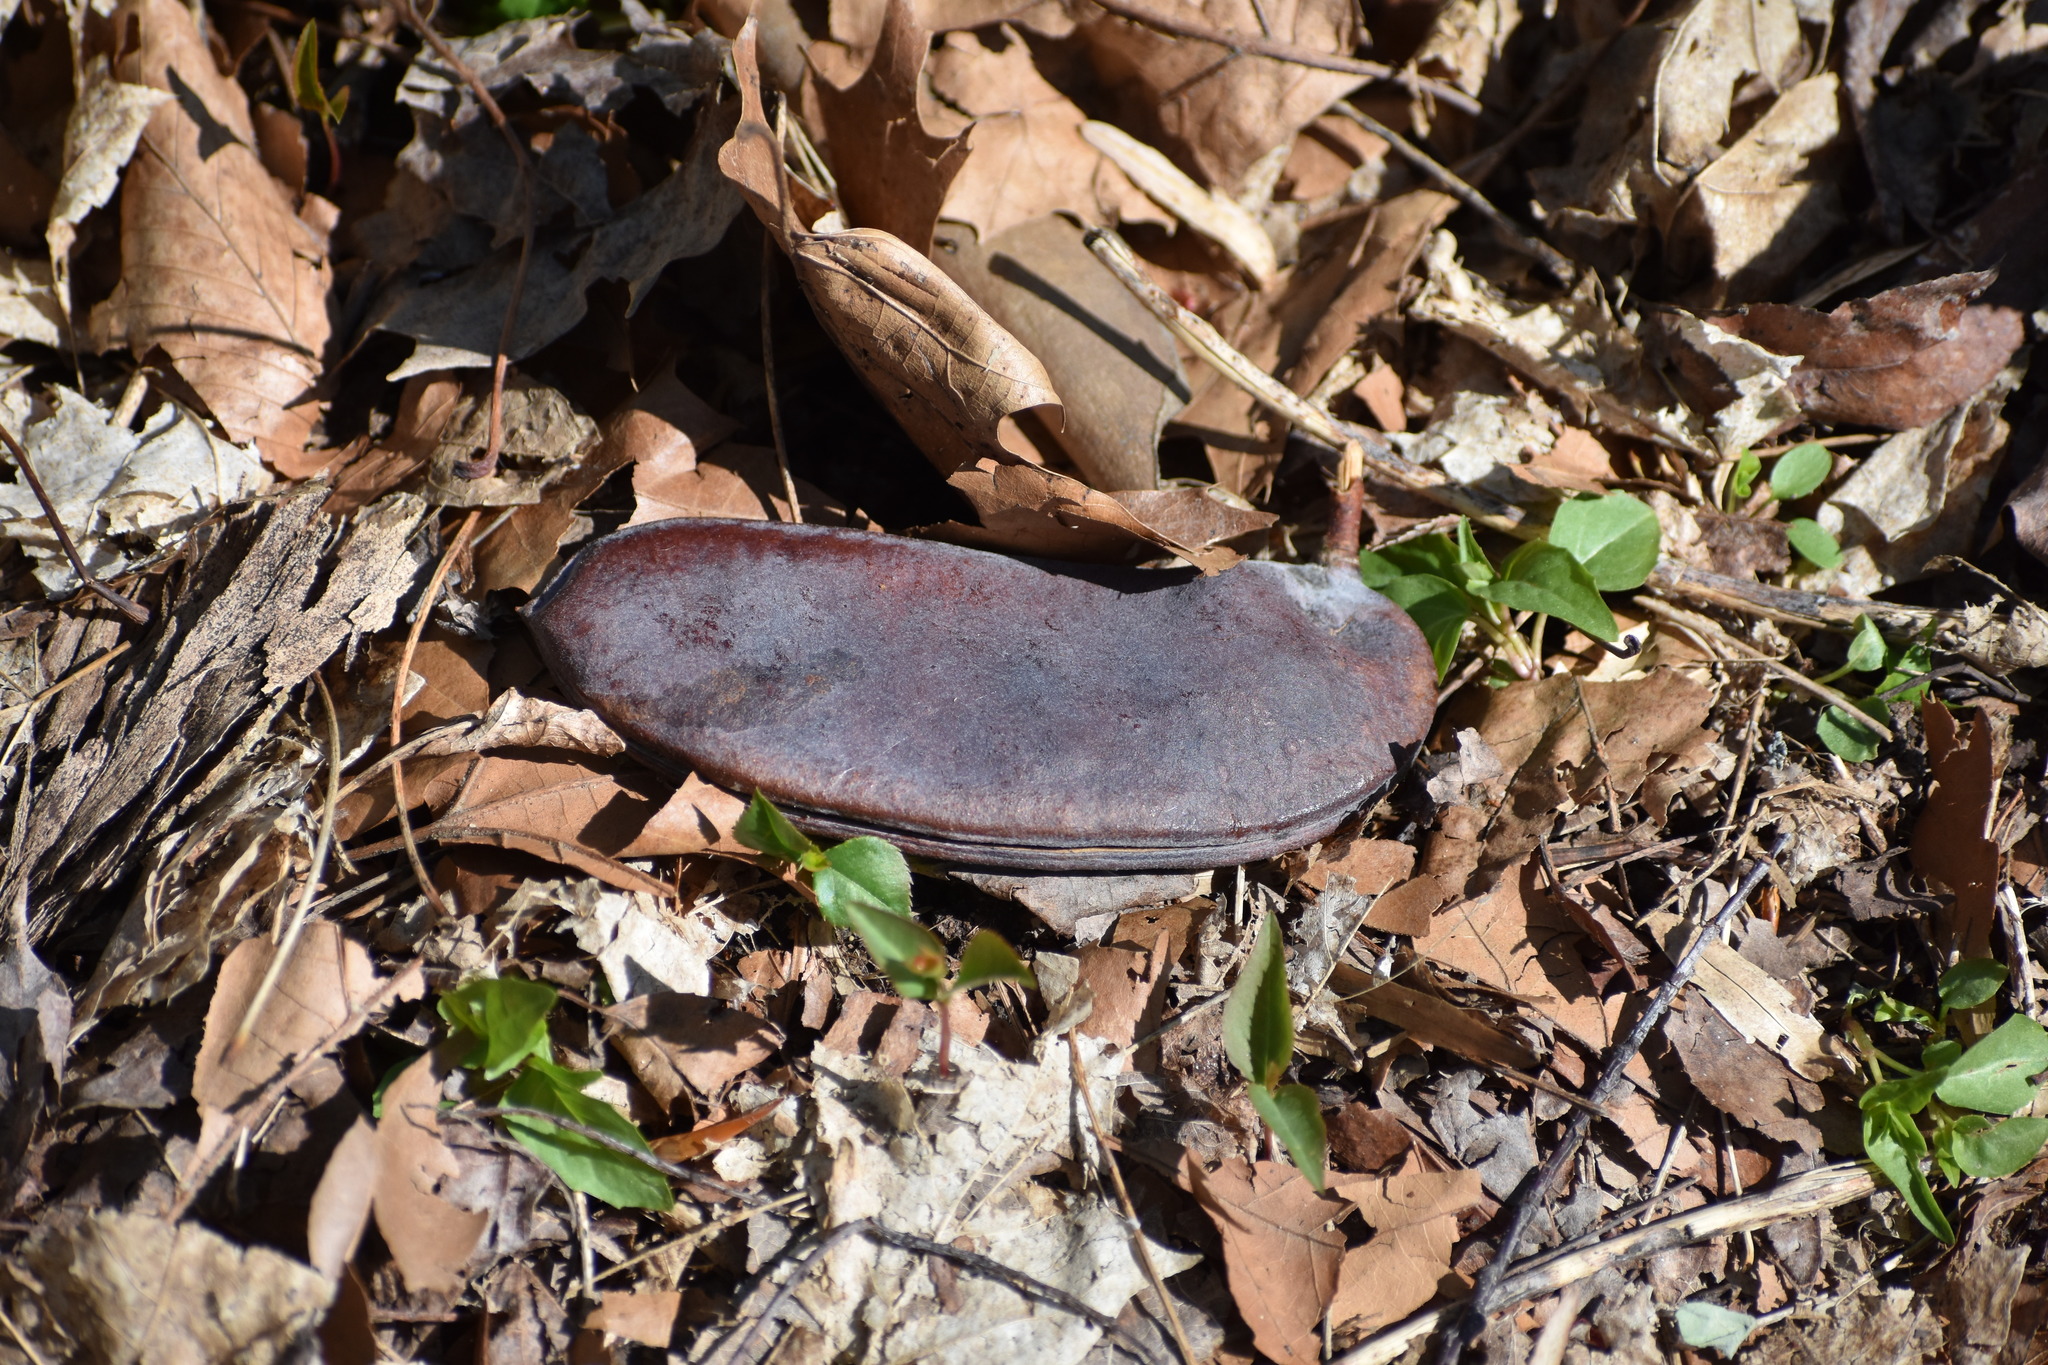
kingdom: Plantae
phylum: Tracheophyta
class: Magnoliopsida
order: Fabales
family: Fabaceae
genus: Gymnocladus
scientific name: Gymnocladus dioicus
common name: Kentucky coffee-tree
